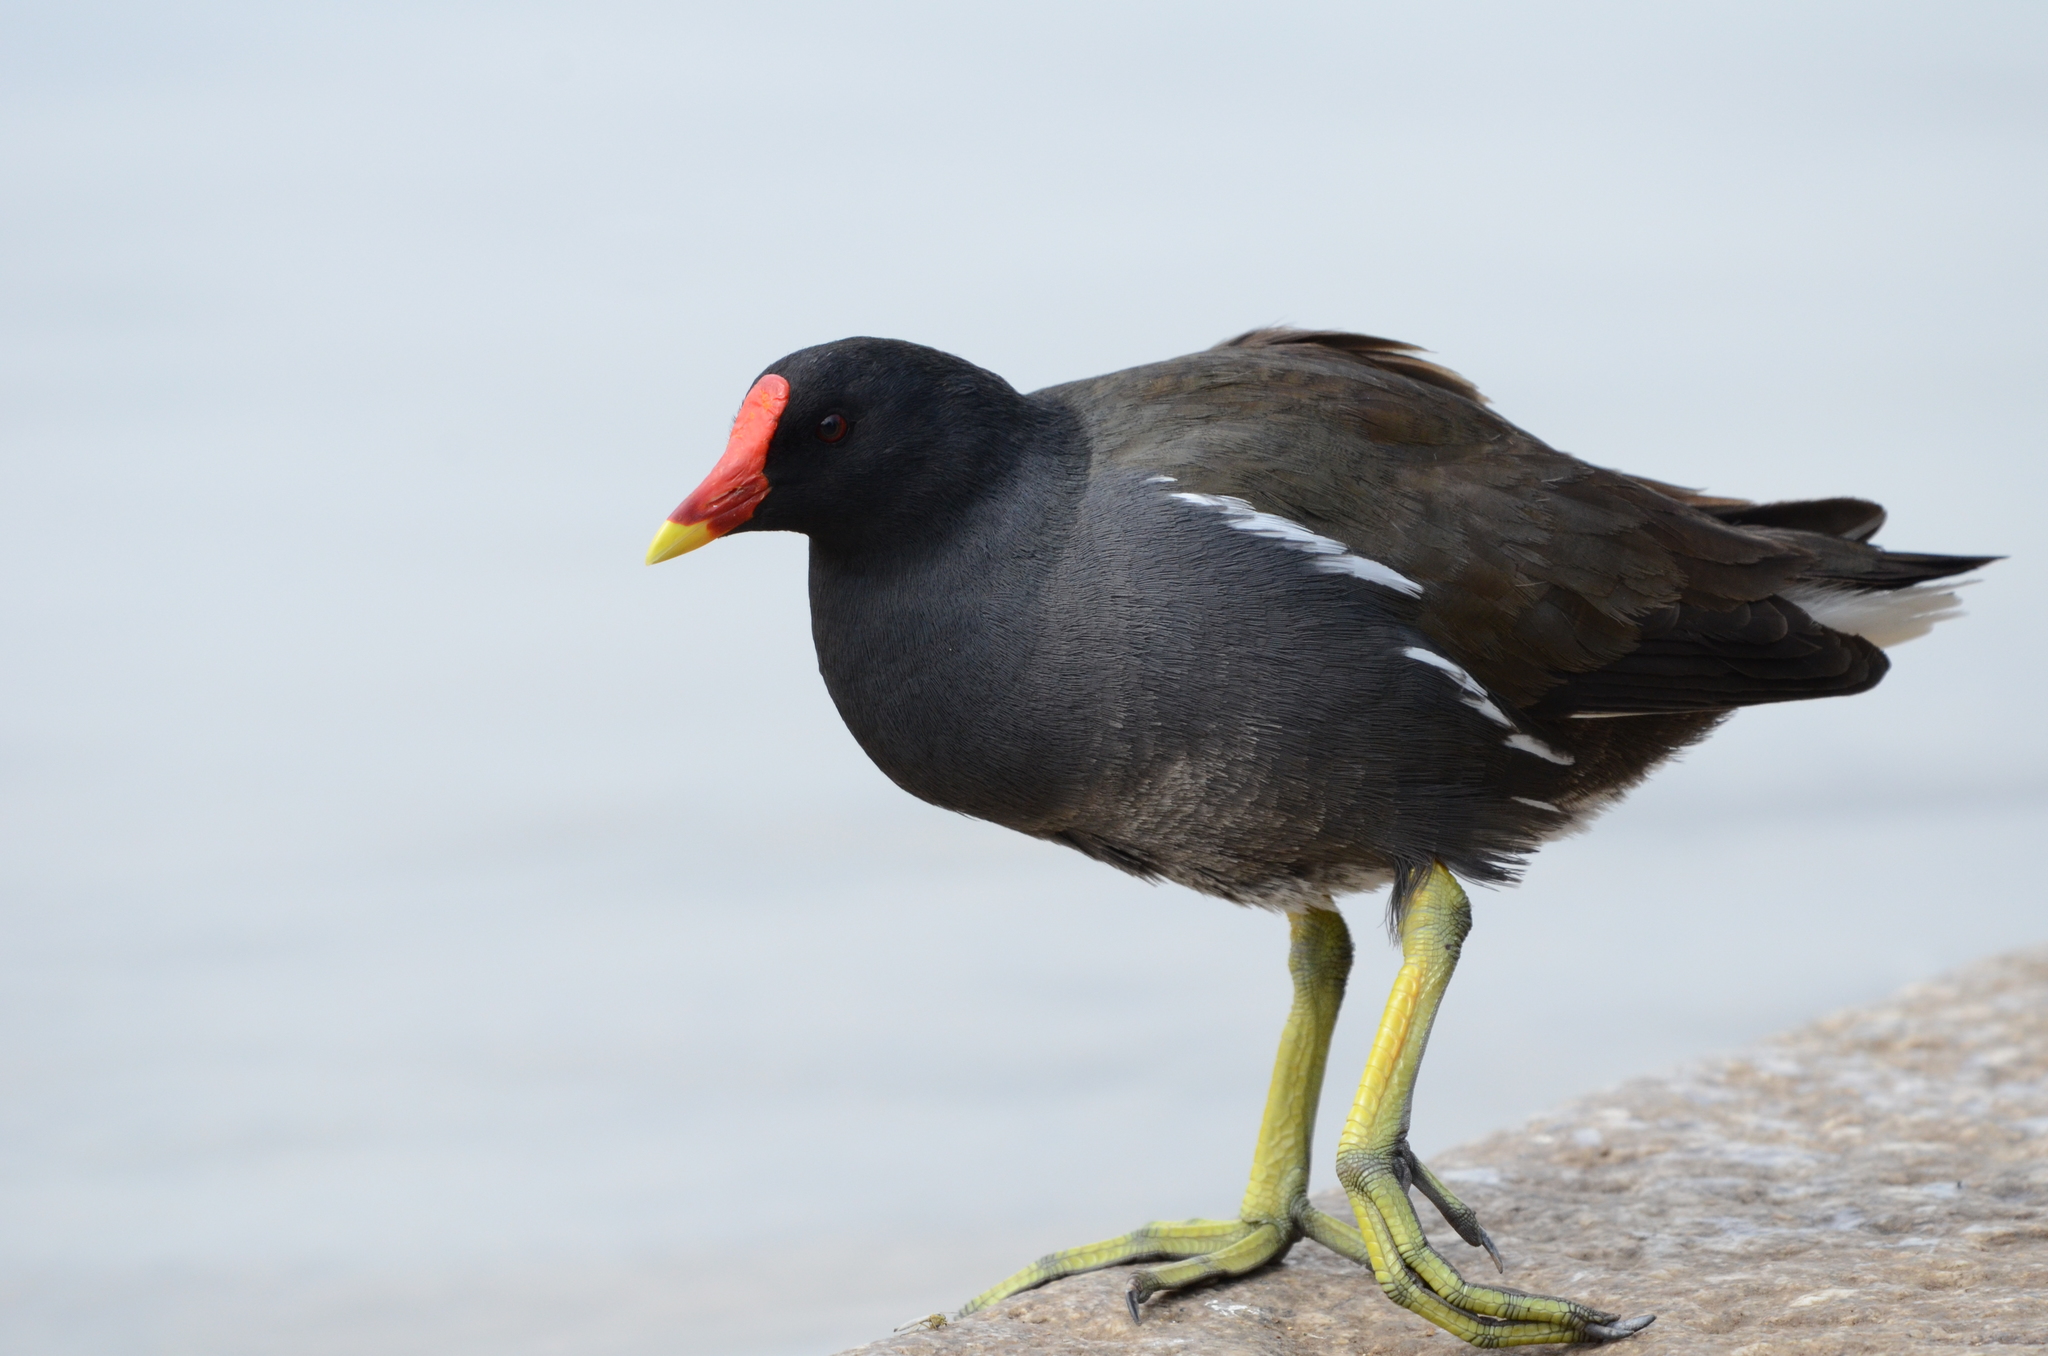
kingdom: Animalia
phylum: Chordata
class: Aves
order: Gruiformes
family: Rallidae
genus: Gallinula
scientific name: Gallinula chloropus
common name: Common moorhen
